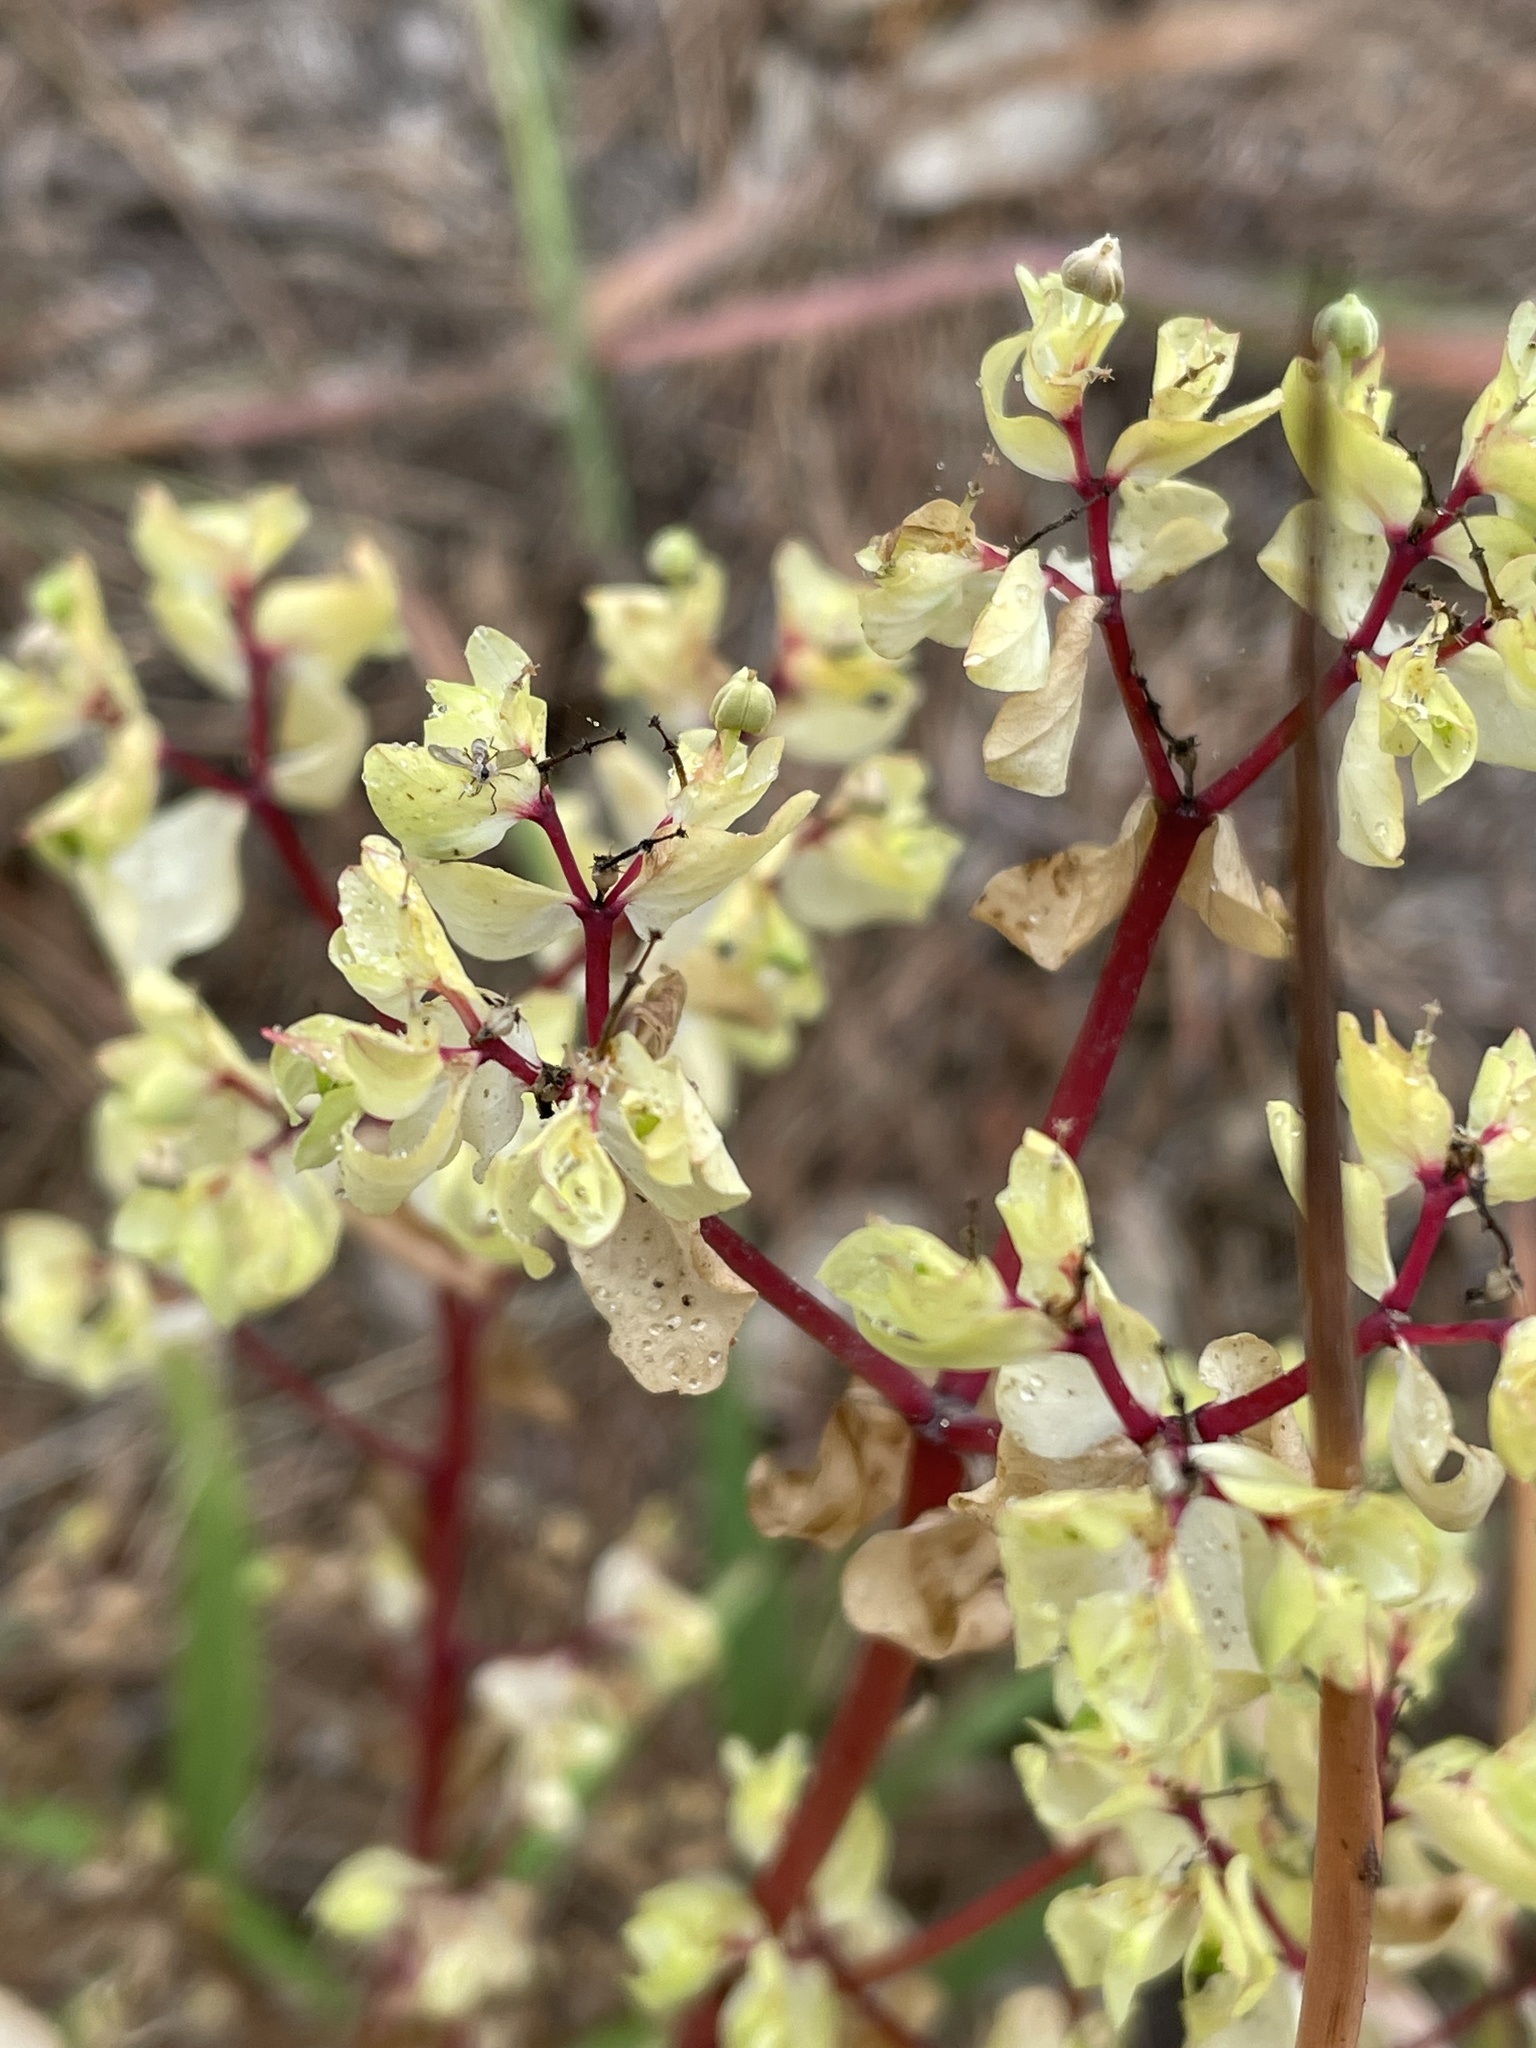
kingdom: Plantae
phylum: Tracheophyta
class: Magnoliopsida
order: Malpighiales
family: Euphorbiaceae
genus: Euphorbia
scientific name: Euphorbia peplus
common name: Petty spurge
